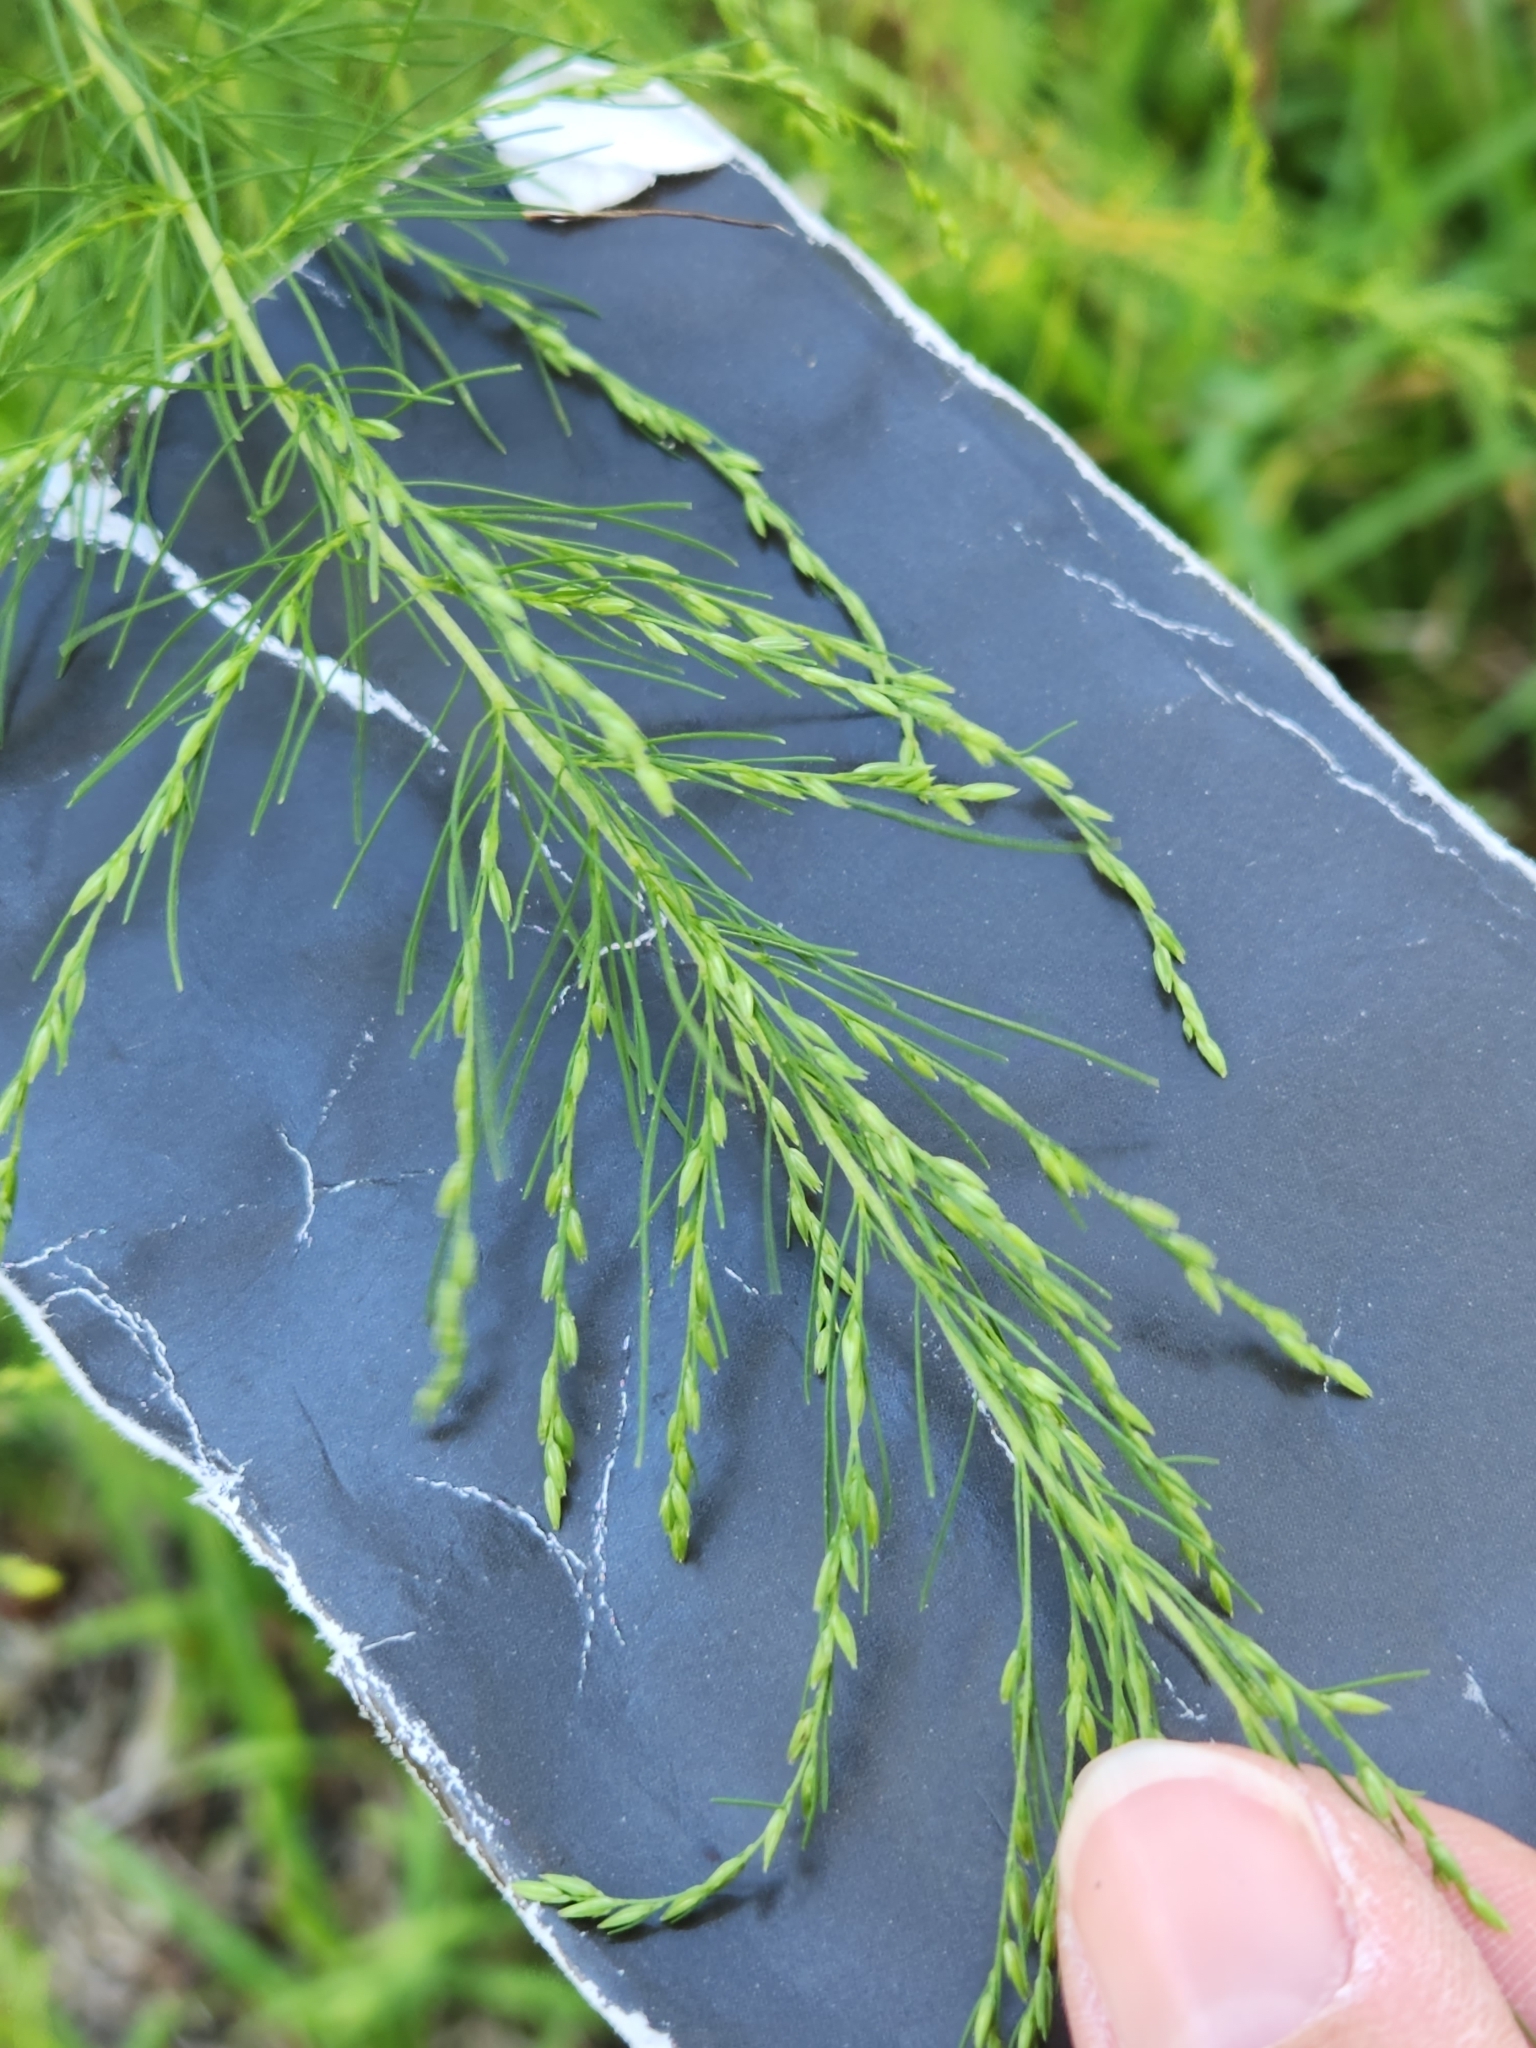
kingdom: Plantae
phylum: Tracheophyta
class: Magnoliopsida
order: Asterales
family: Asteraceae
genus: Eupatorium
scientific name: Eupatorium capillifolium
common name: Dog-fennel
